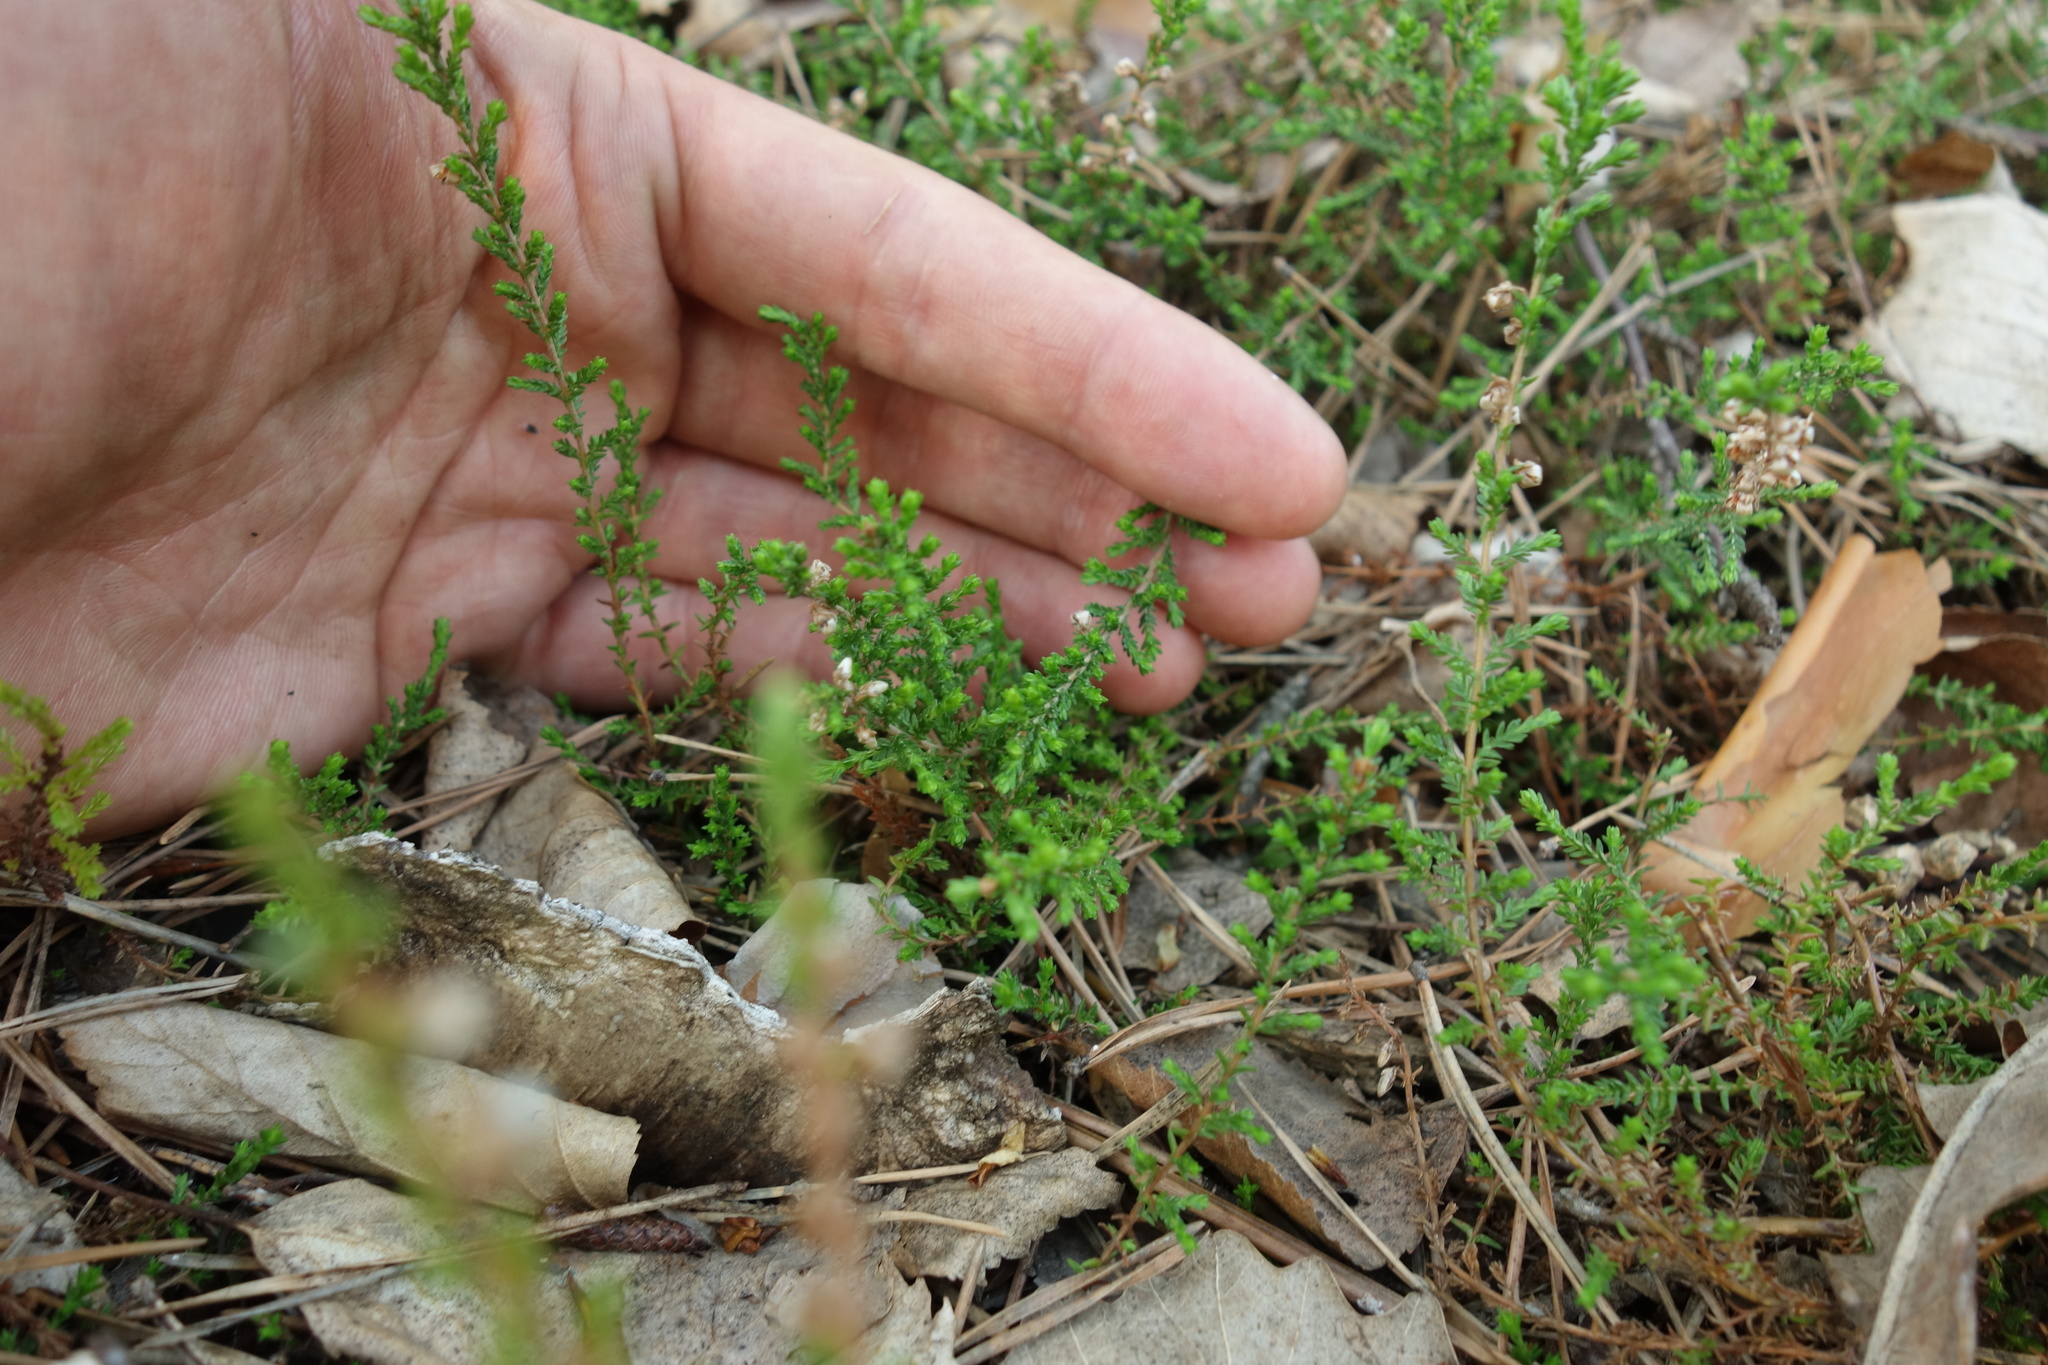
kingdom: Plantae
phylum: Tracheophyta
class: Magnoliopsida
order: Ericales
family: Ericaceae
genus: Calluna
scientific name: Calluna vulgaris
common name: Heather
